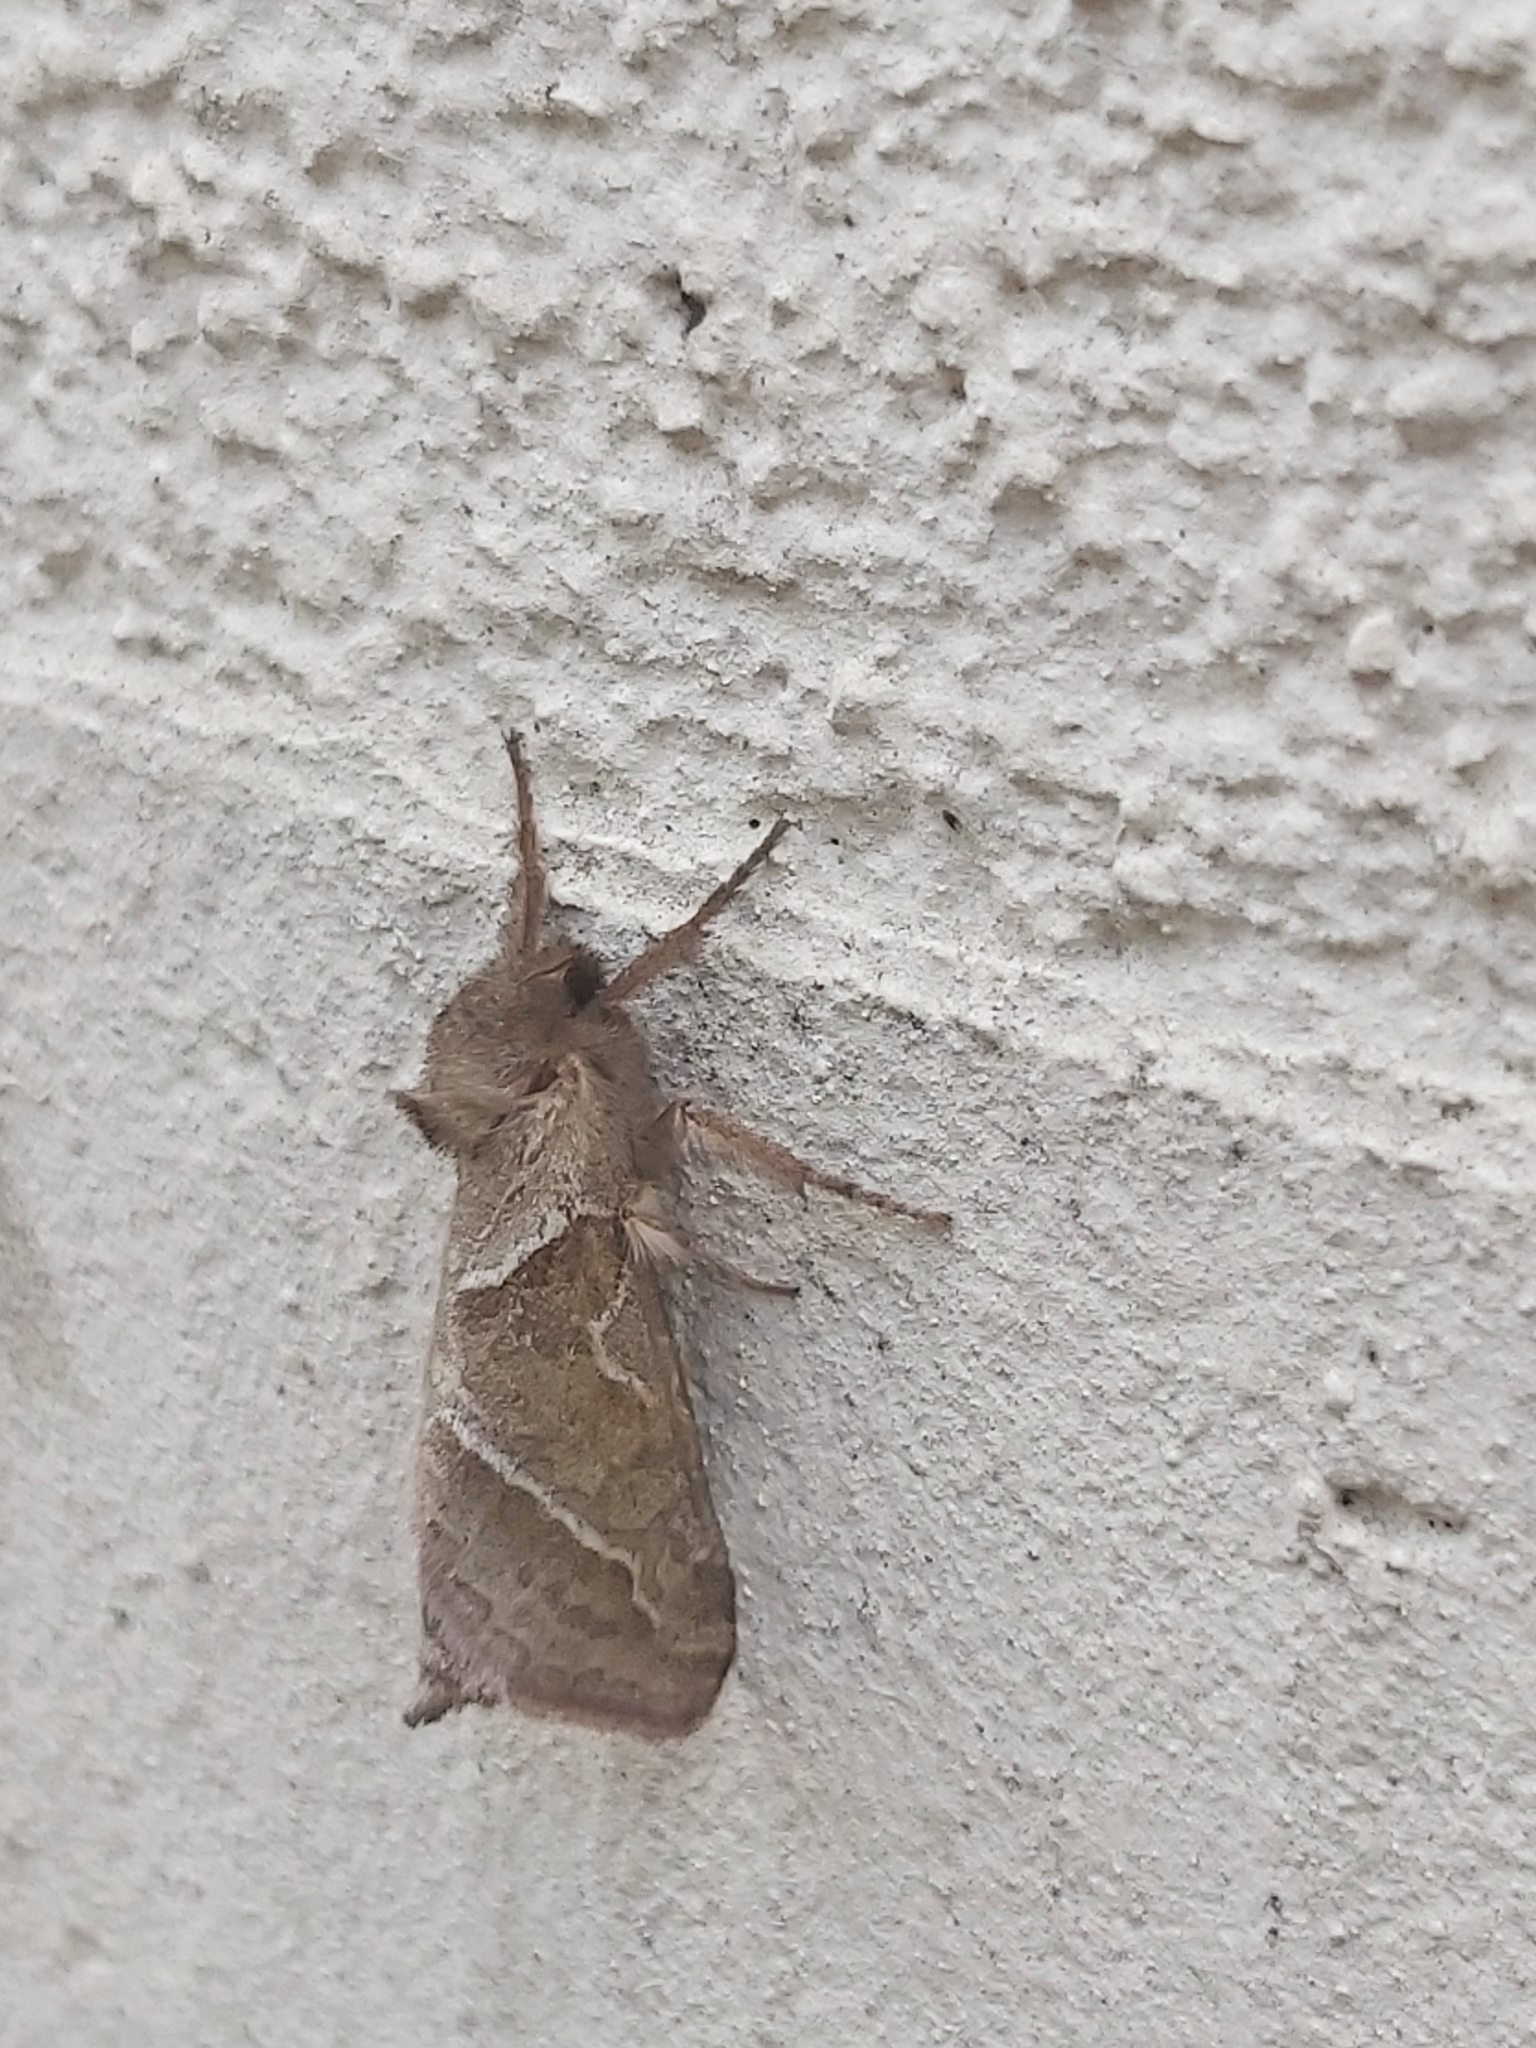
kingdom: Animalia
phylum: Arthropoda
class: Insecta
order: Lepidoptera
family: Hepialidae
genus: Triodia
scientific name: Triodia sylvina
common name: Orange swift
